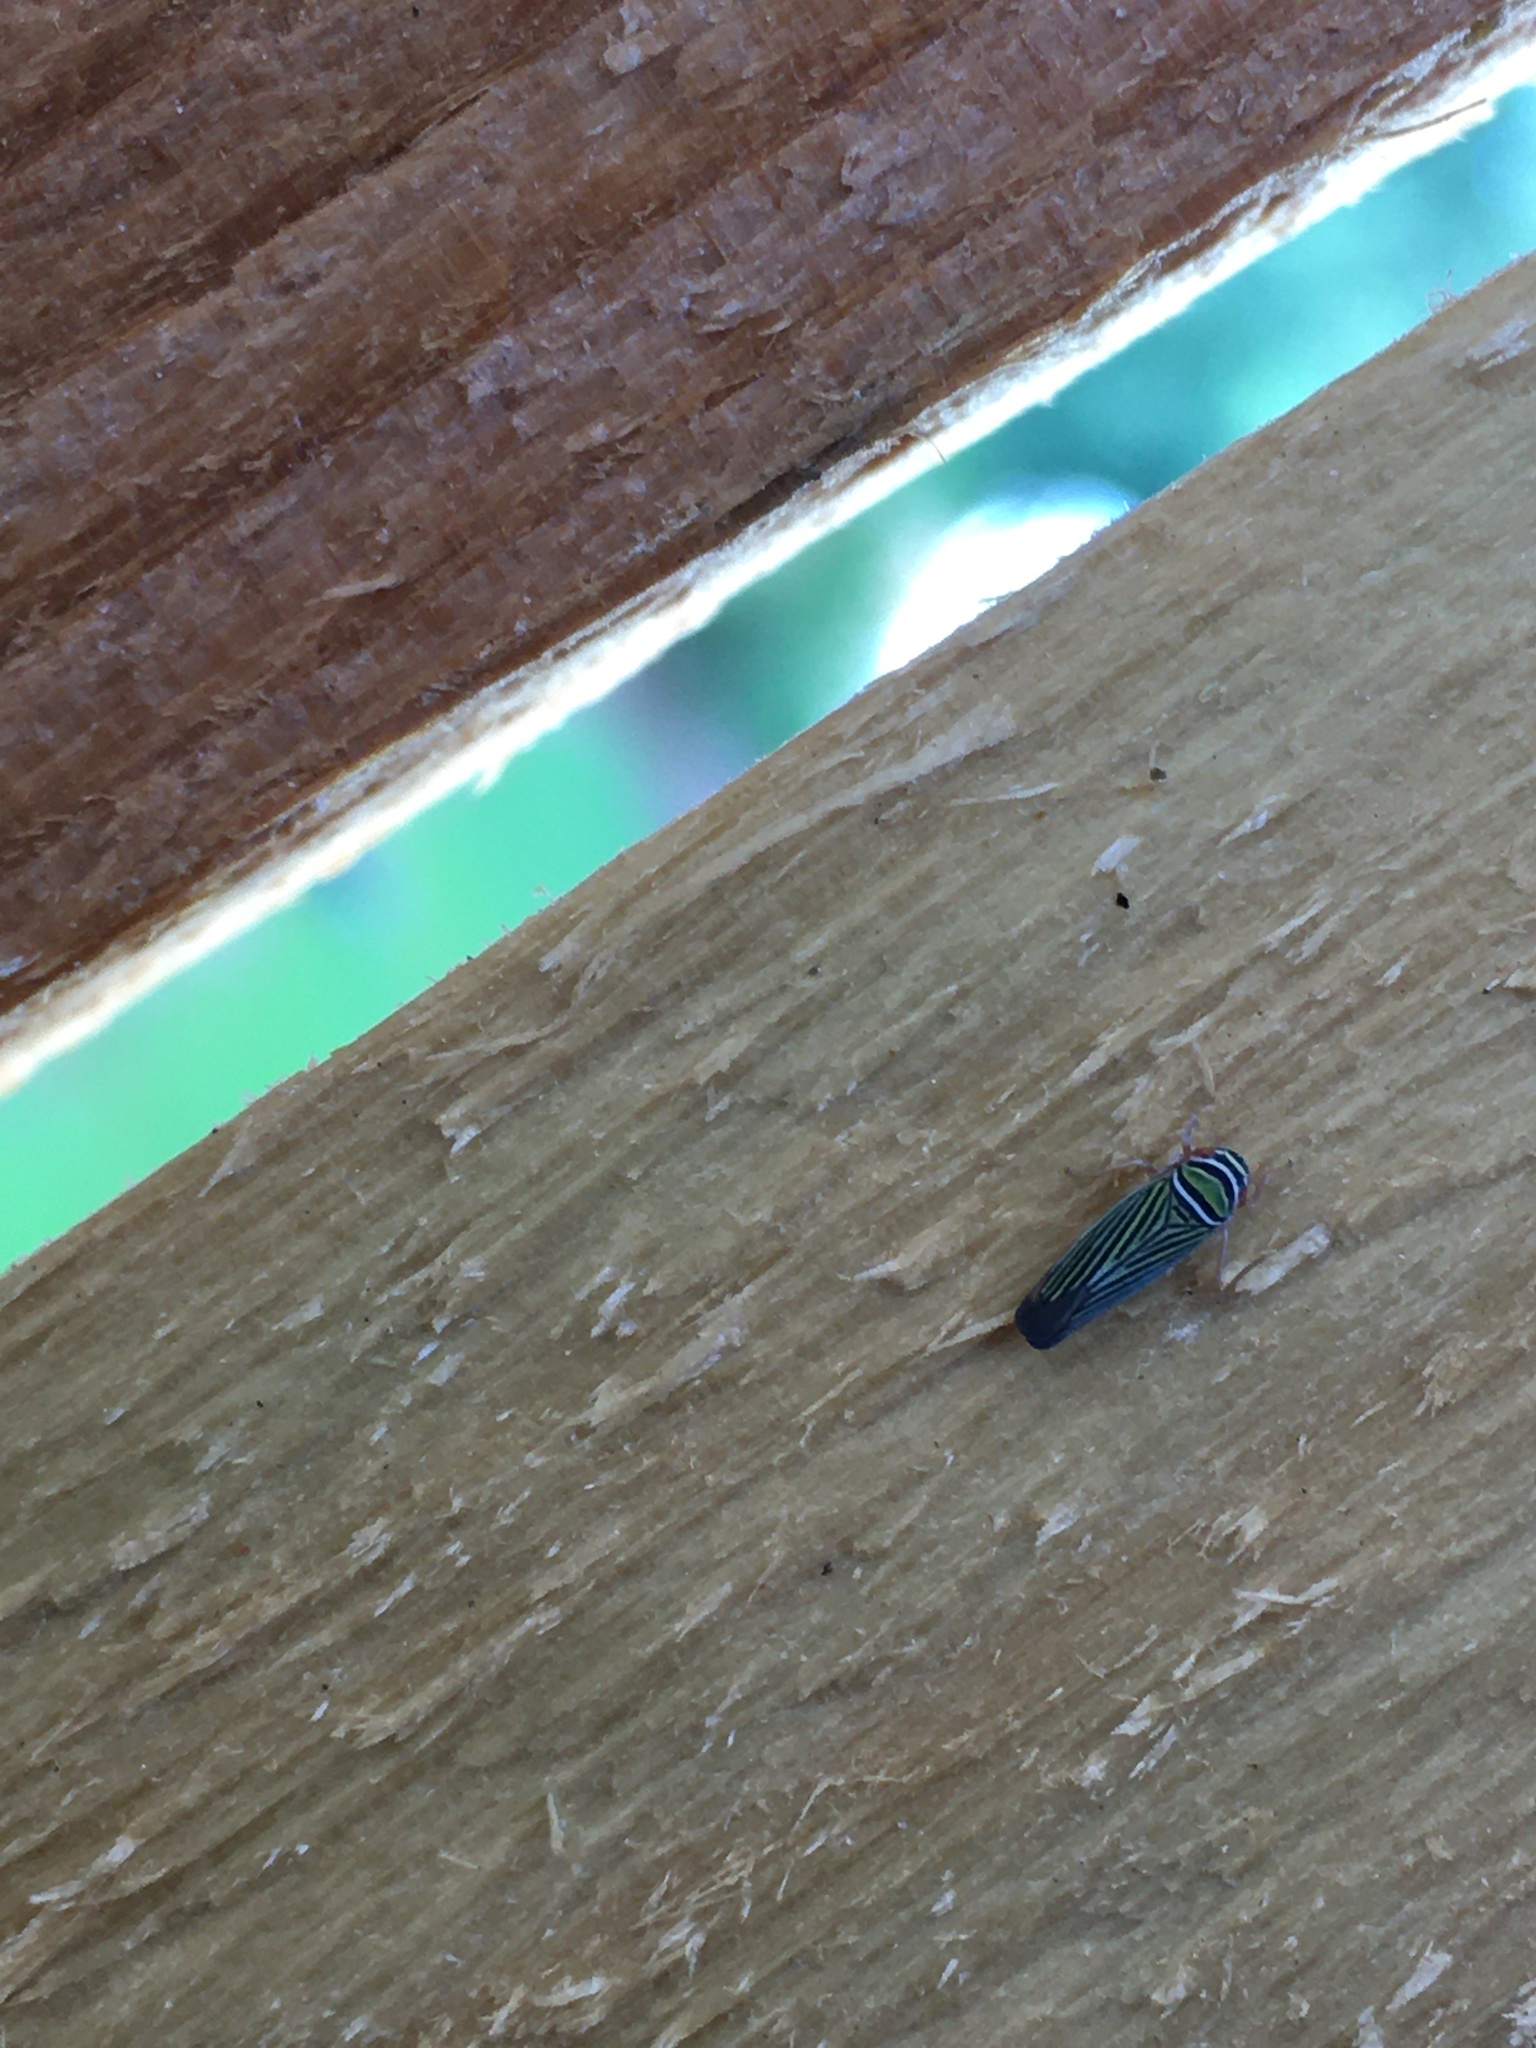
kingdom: Animalia
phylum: Arthropoda
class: Insecta
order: Hemiptera
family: Cicadellidae
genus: Tylozygus
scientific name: Tylozygus bifidus
